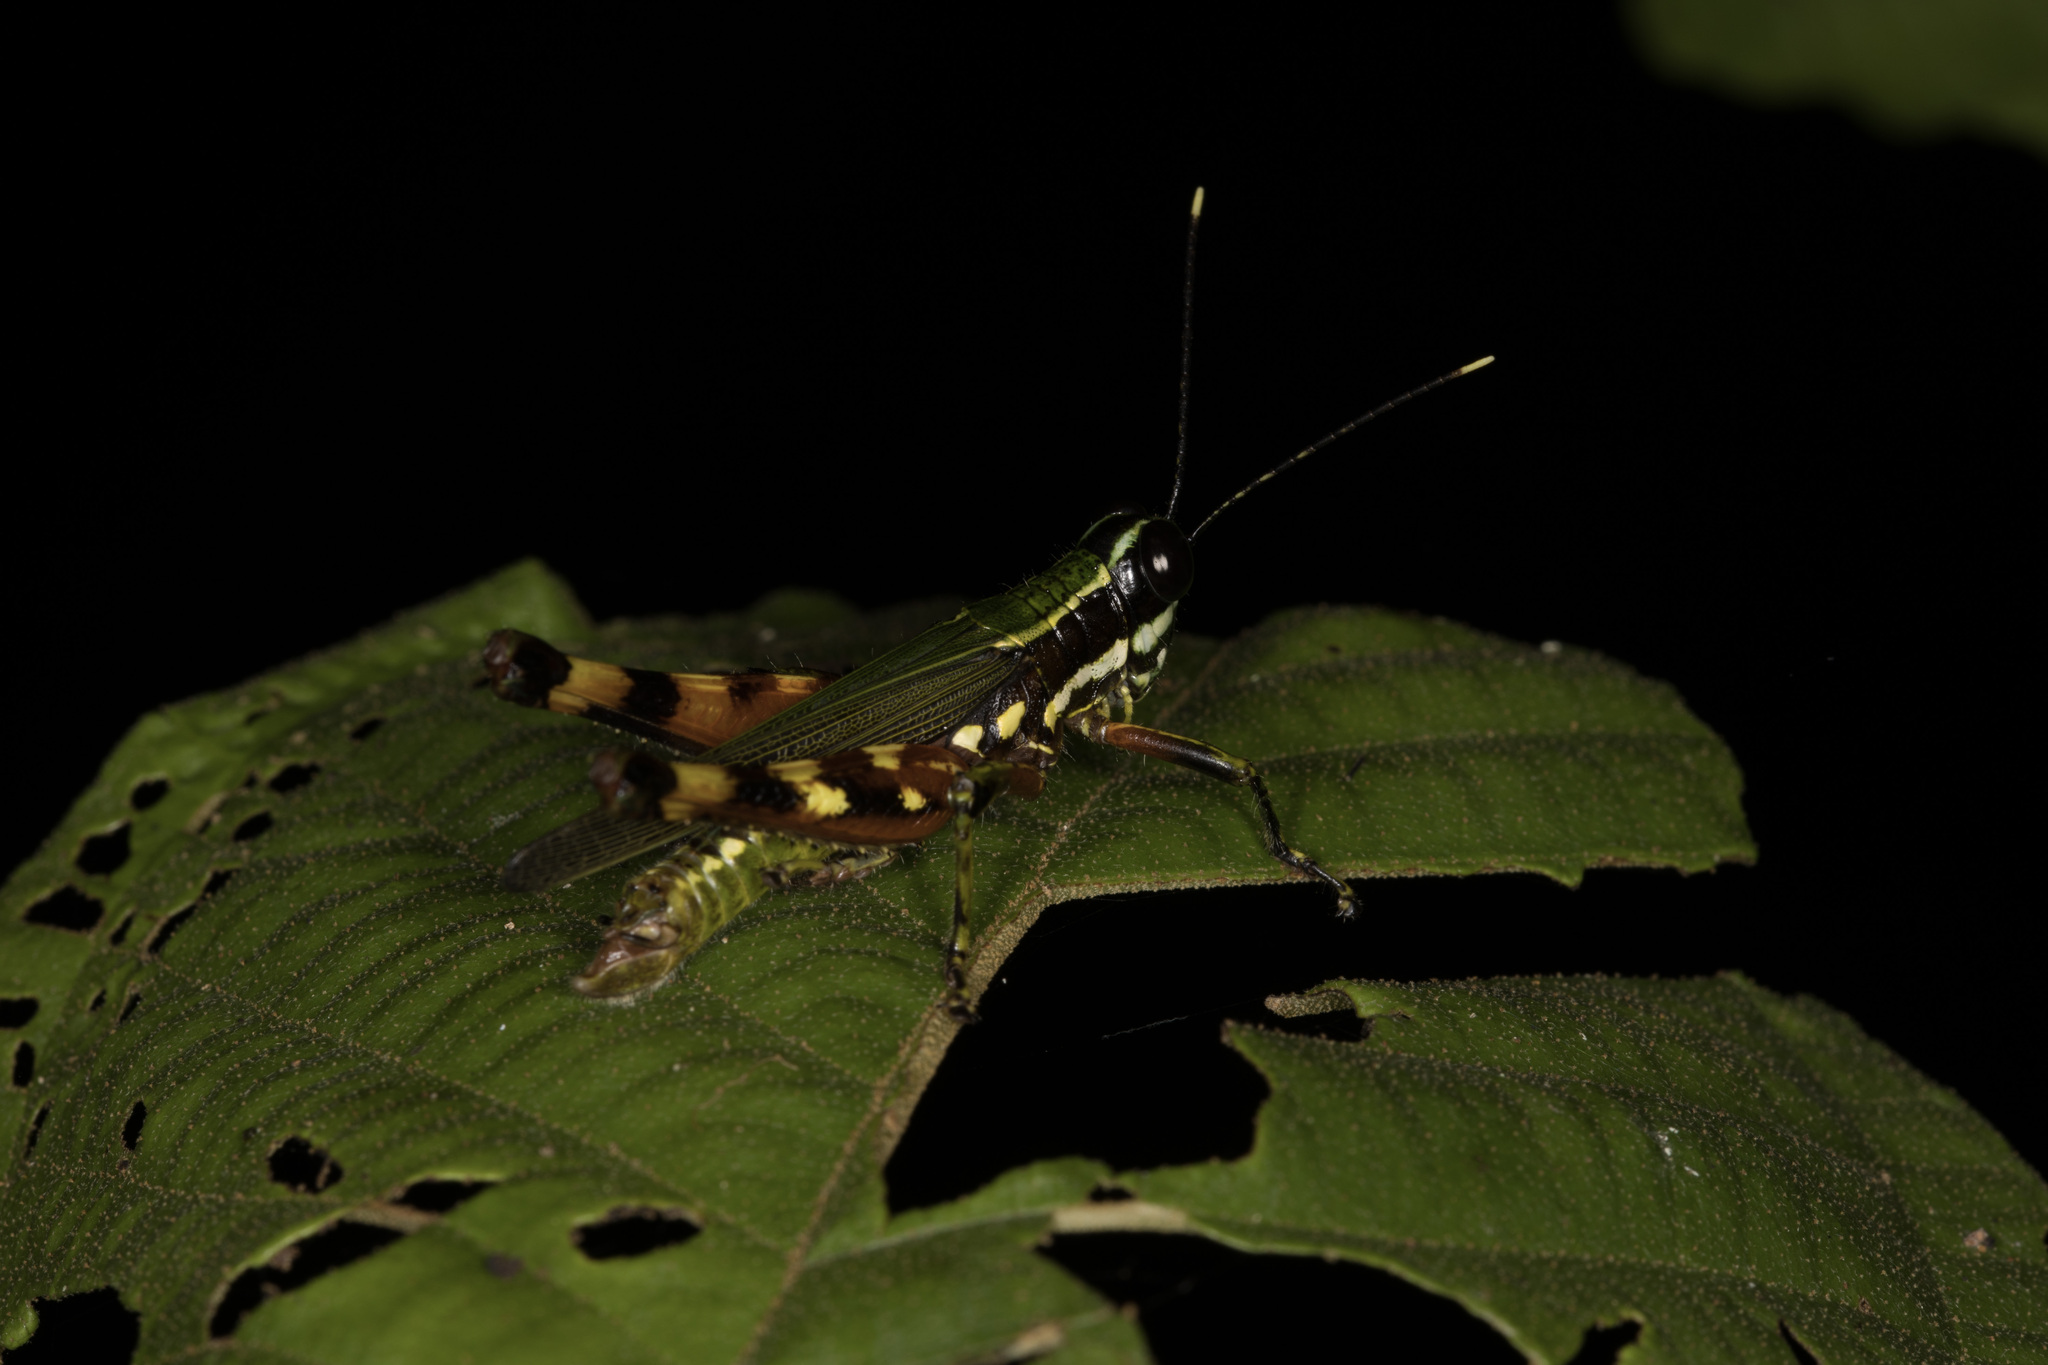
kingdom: Animalia
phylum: Arthropoda
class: Insecta
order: Orthoptera
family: Acrididae
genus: Tetrataenia
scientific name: Tetrataenia surinama
